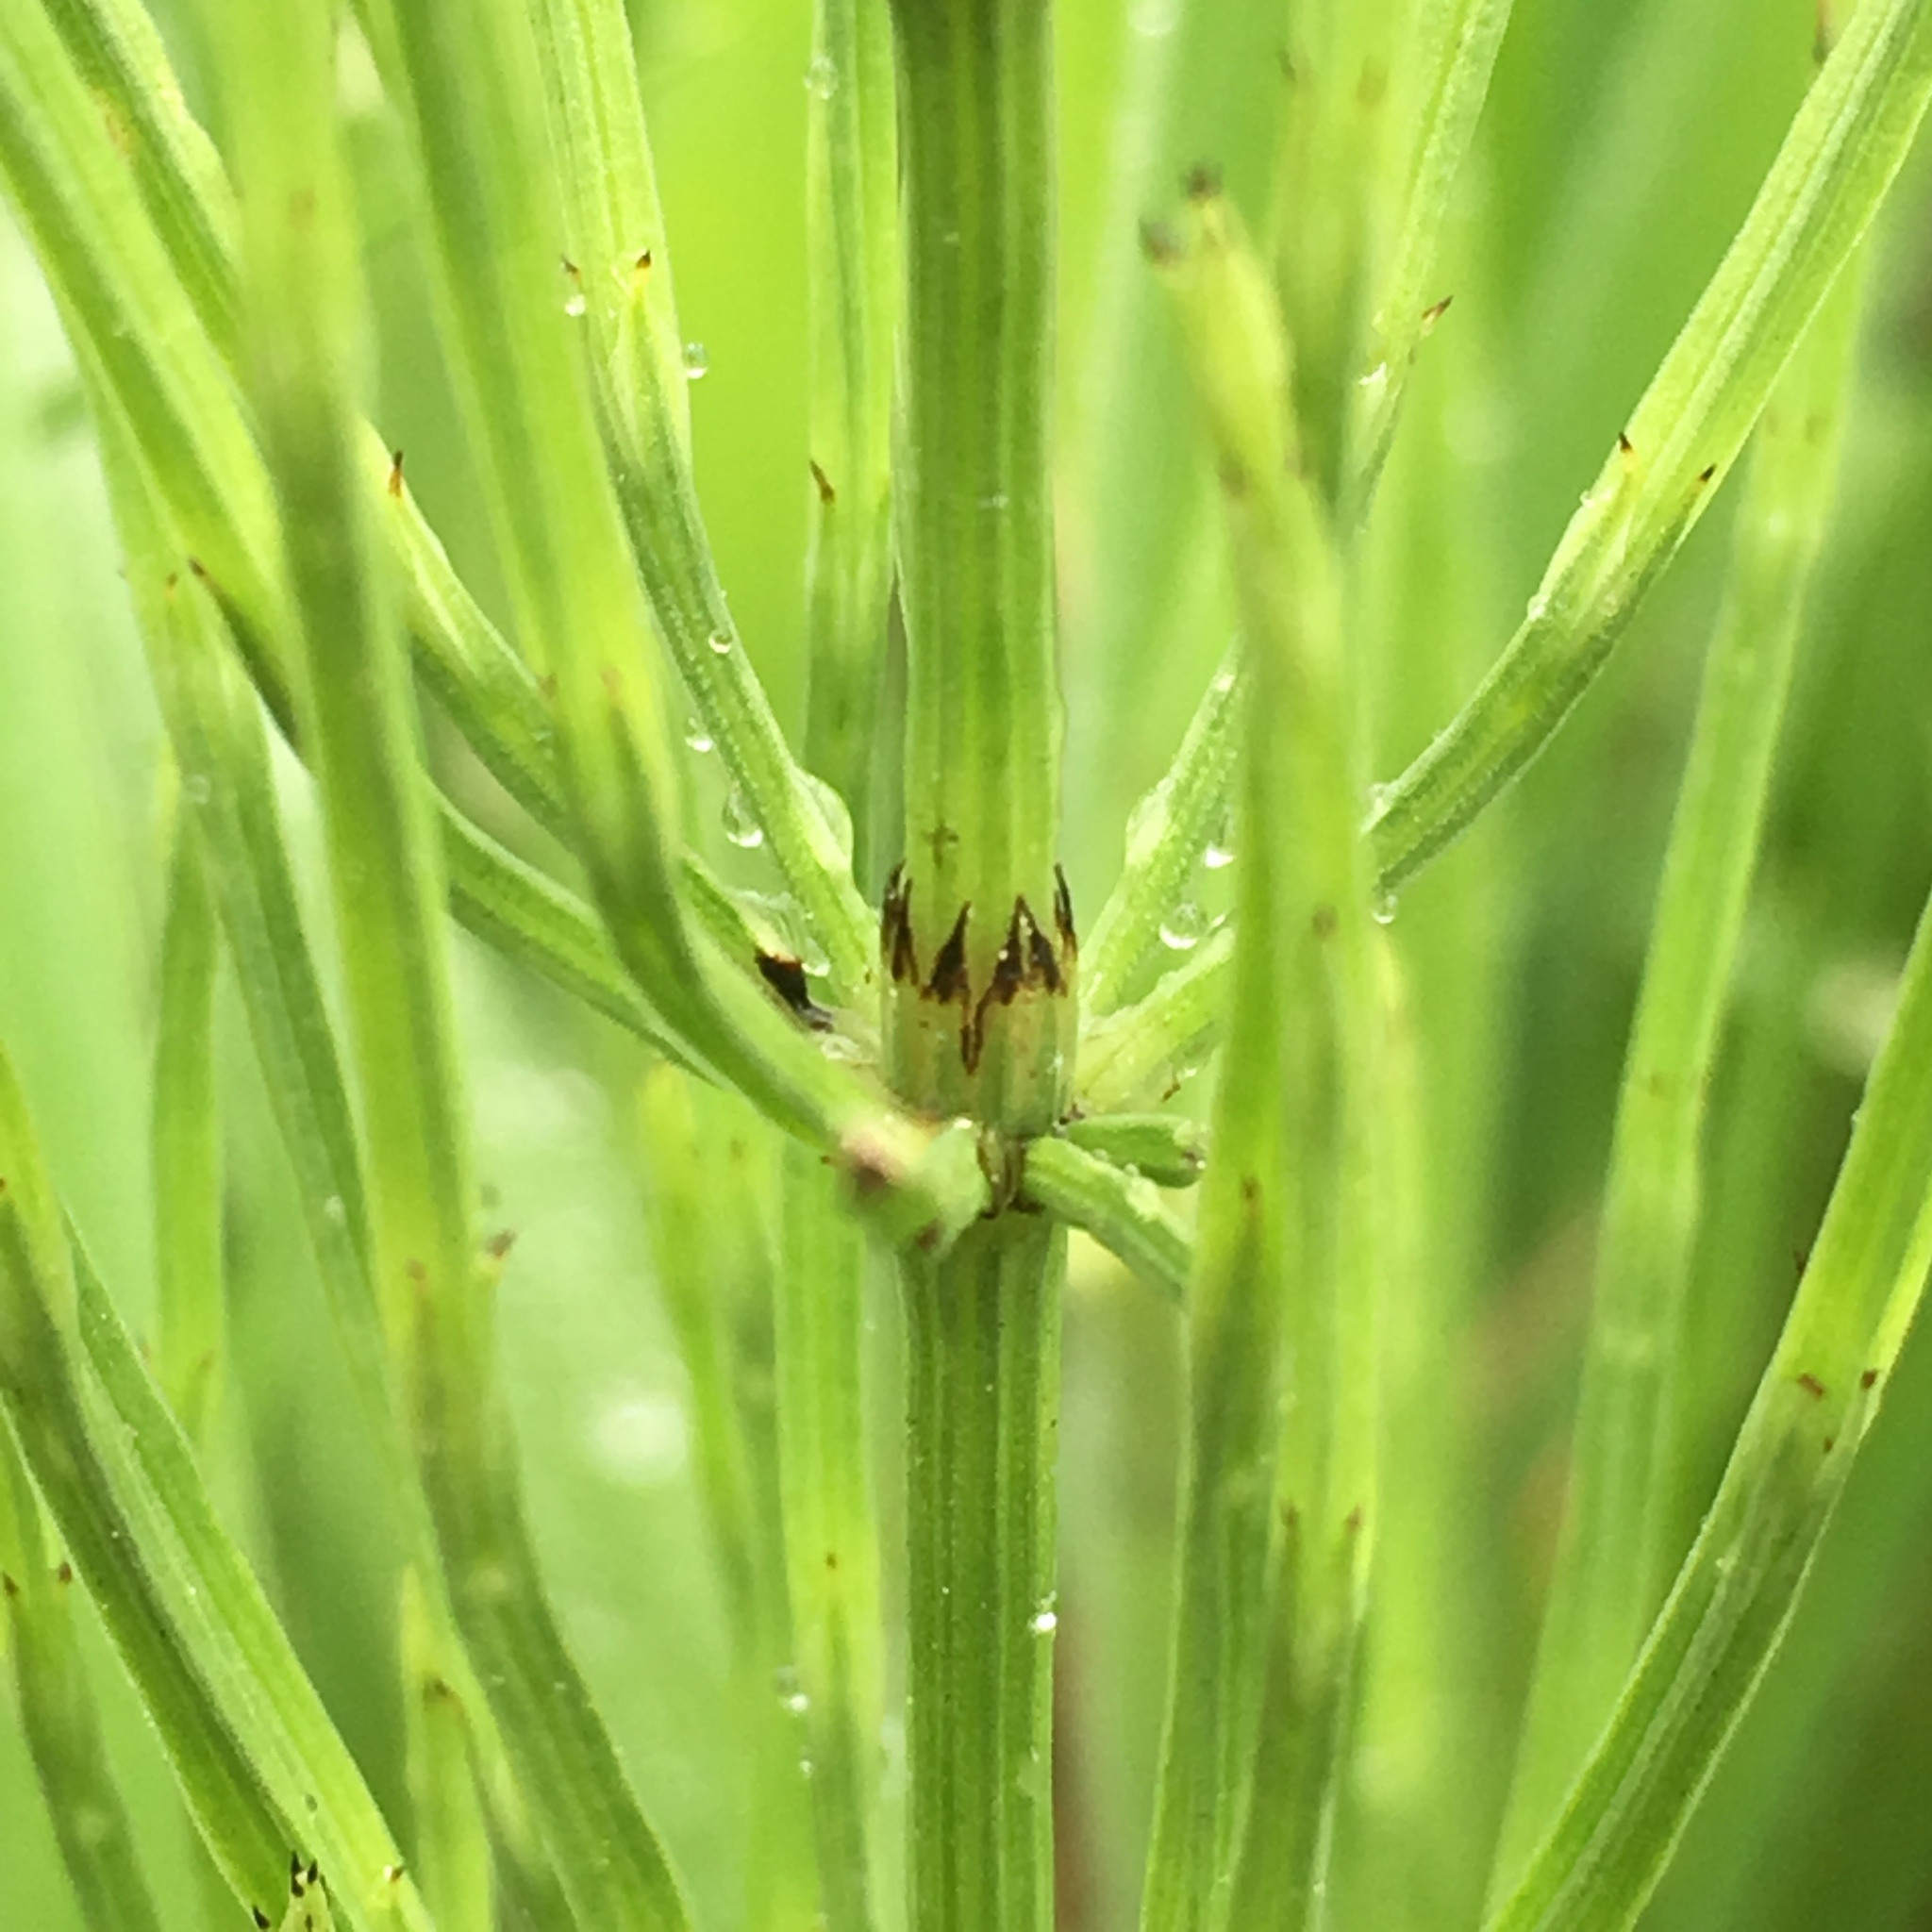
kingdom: Plantae
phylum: Tracheophyta
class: Polypodiopsida
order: Equisetales
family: Equisetaceae
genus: Equisetum
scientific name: Equisetum arvense
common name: Field horsetail
